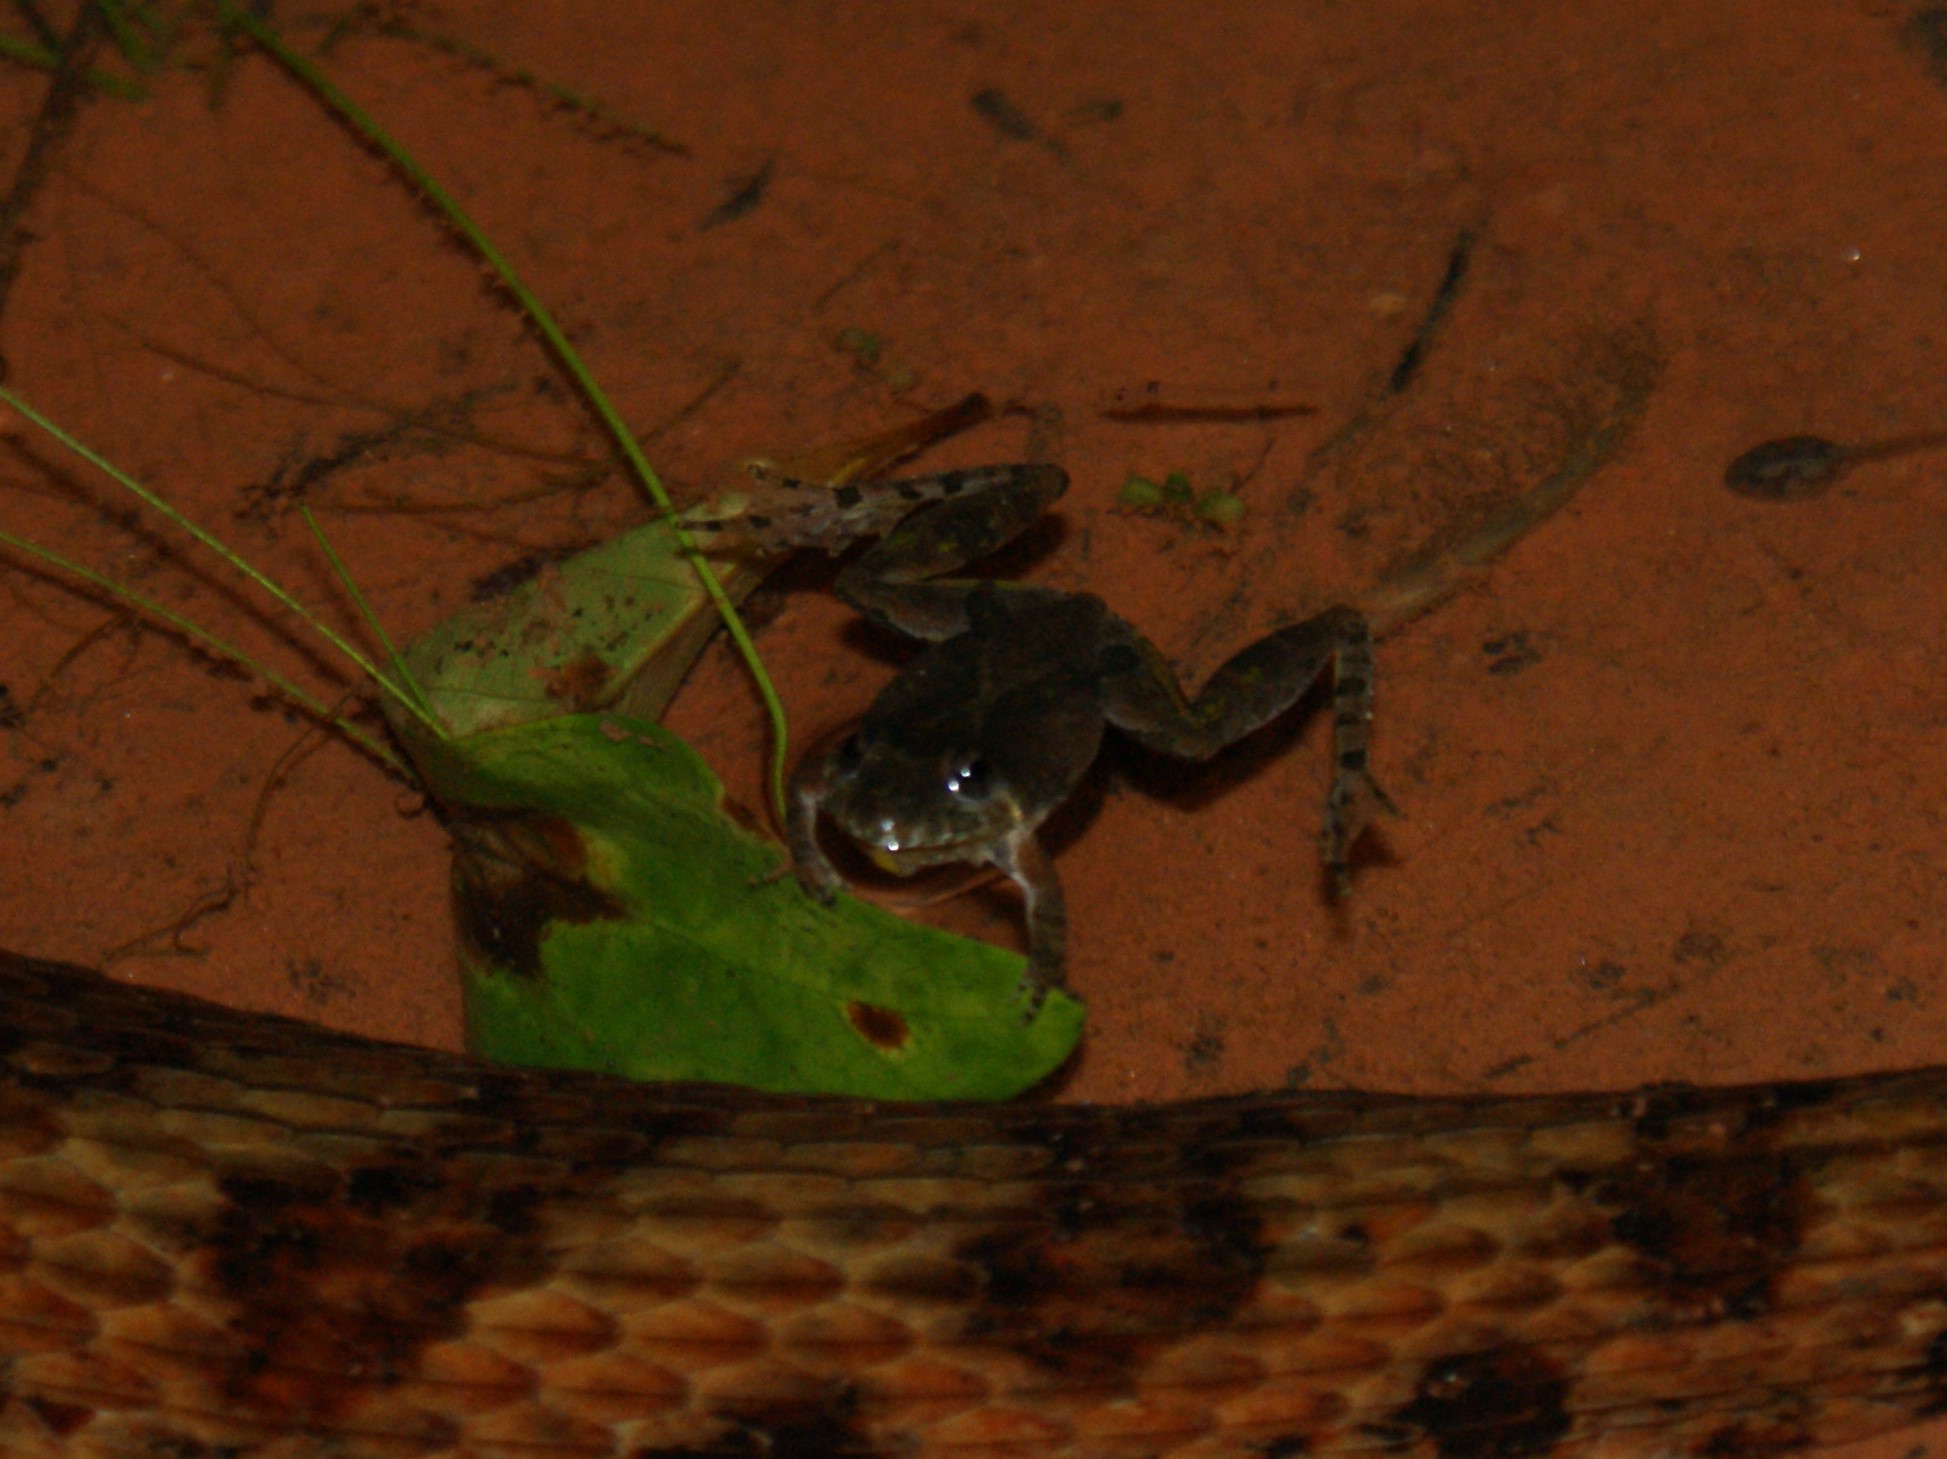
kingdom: Animalia
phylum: Chordata
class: Amphibia
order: Anura
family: Hylidae
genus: Acris
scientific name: Acris crepitans
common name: Northern cricket frog
